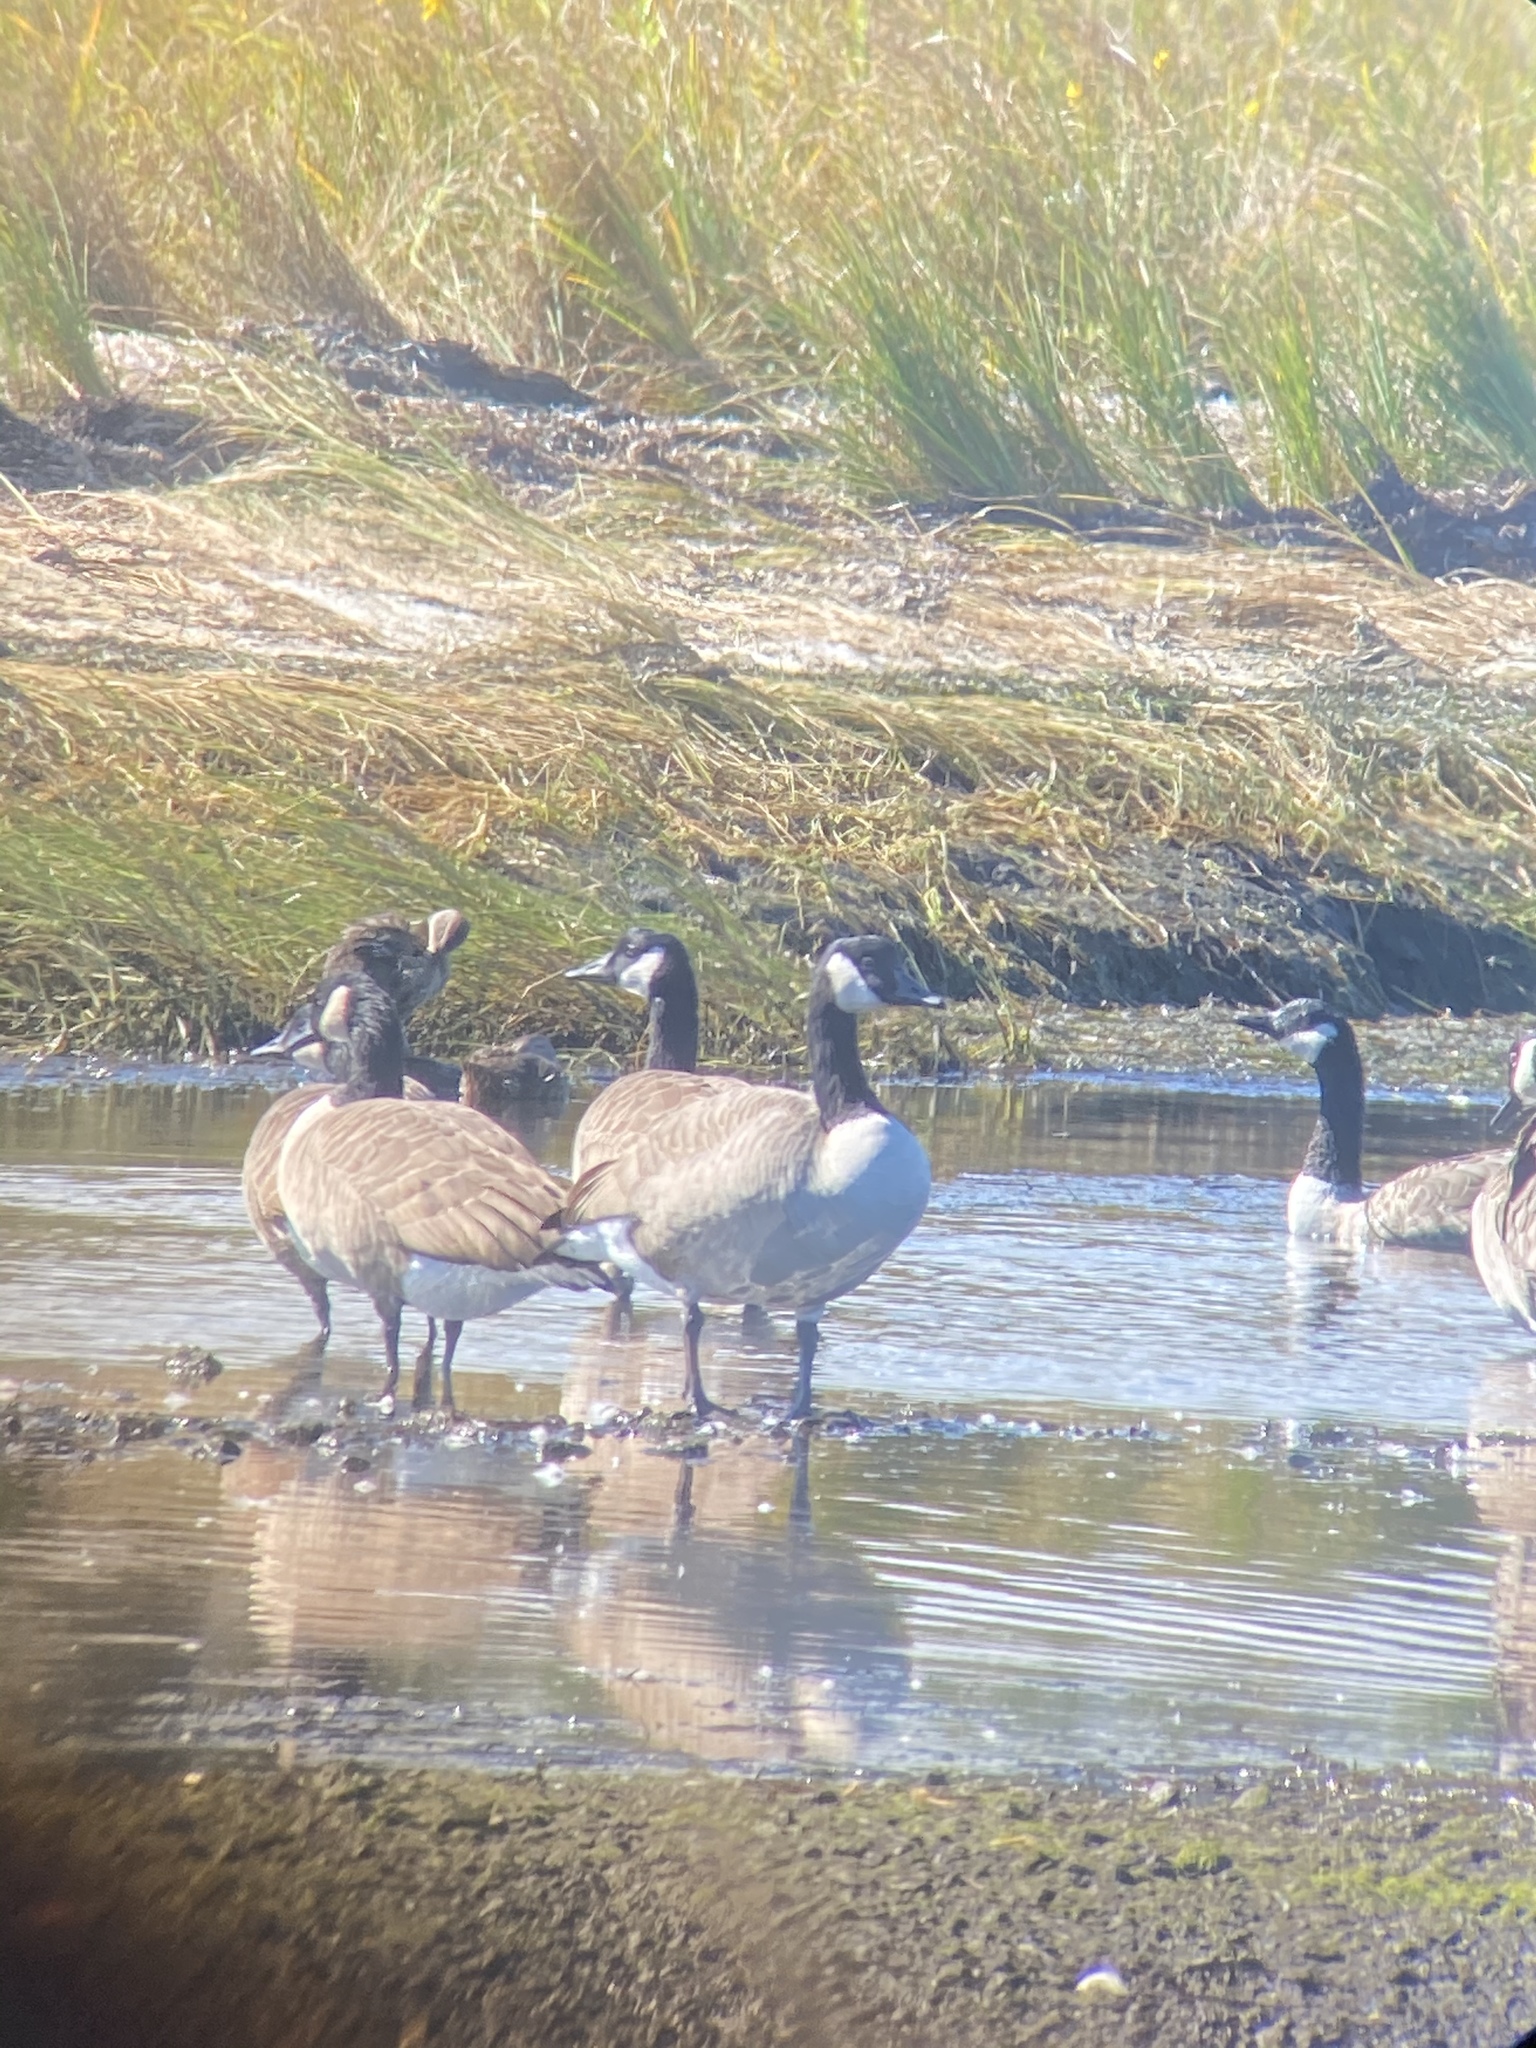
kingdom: Animalia
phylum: Chordata
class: Aves
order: Anseriformes
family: Anatidae
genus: Branta
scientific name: Branta canadensis
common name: Canada goose
